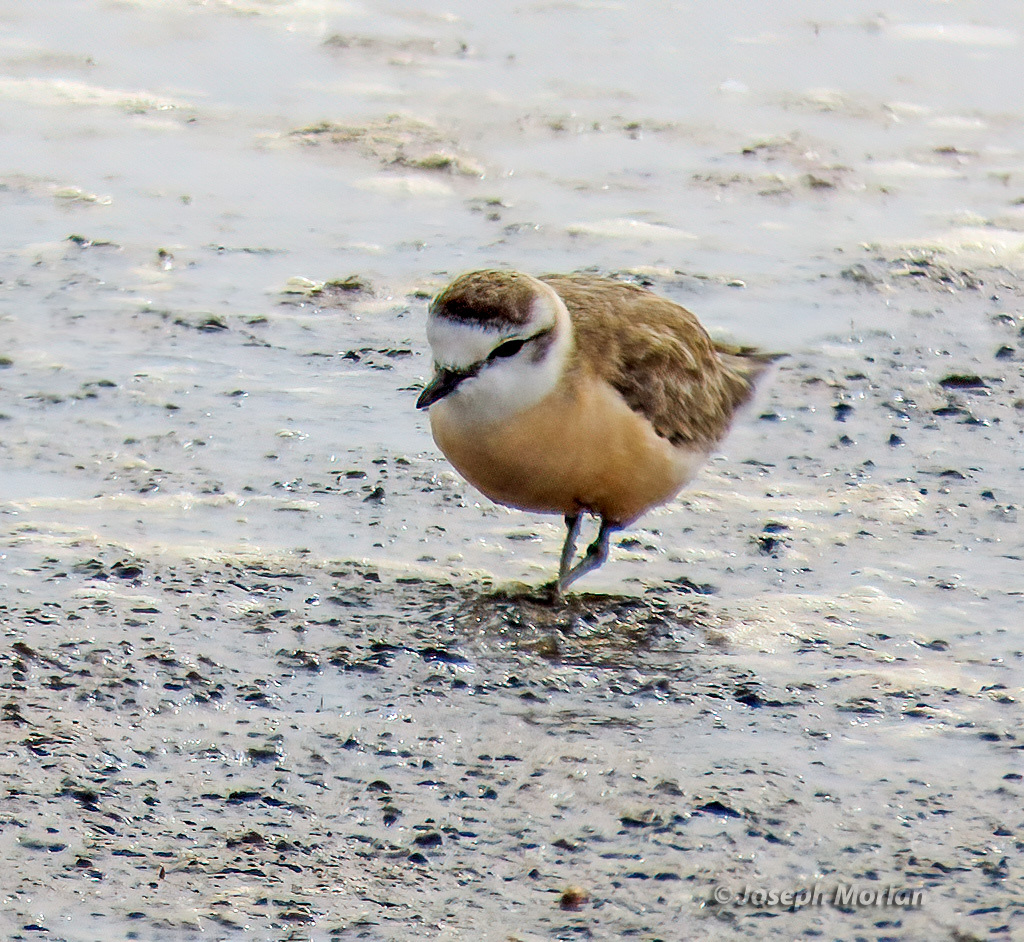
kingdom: Animalia
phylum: Chordata
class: Aves
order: Charadriiformes
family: Charadriidae
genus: Anarhynchus
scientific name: Anarhynchus
